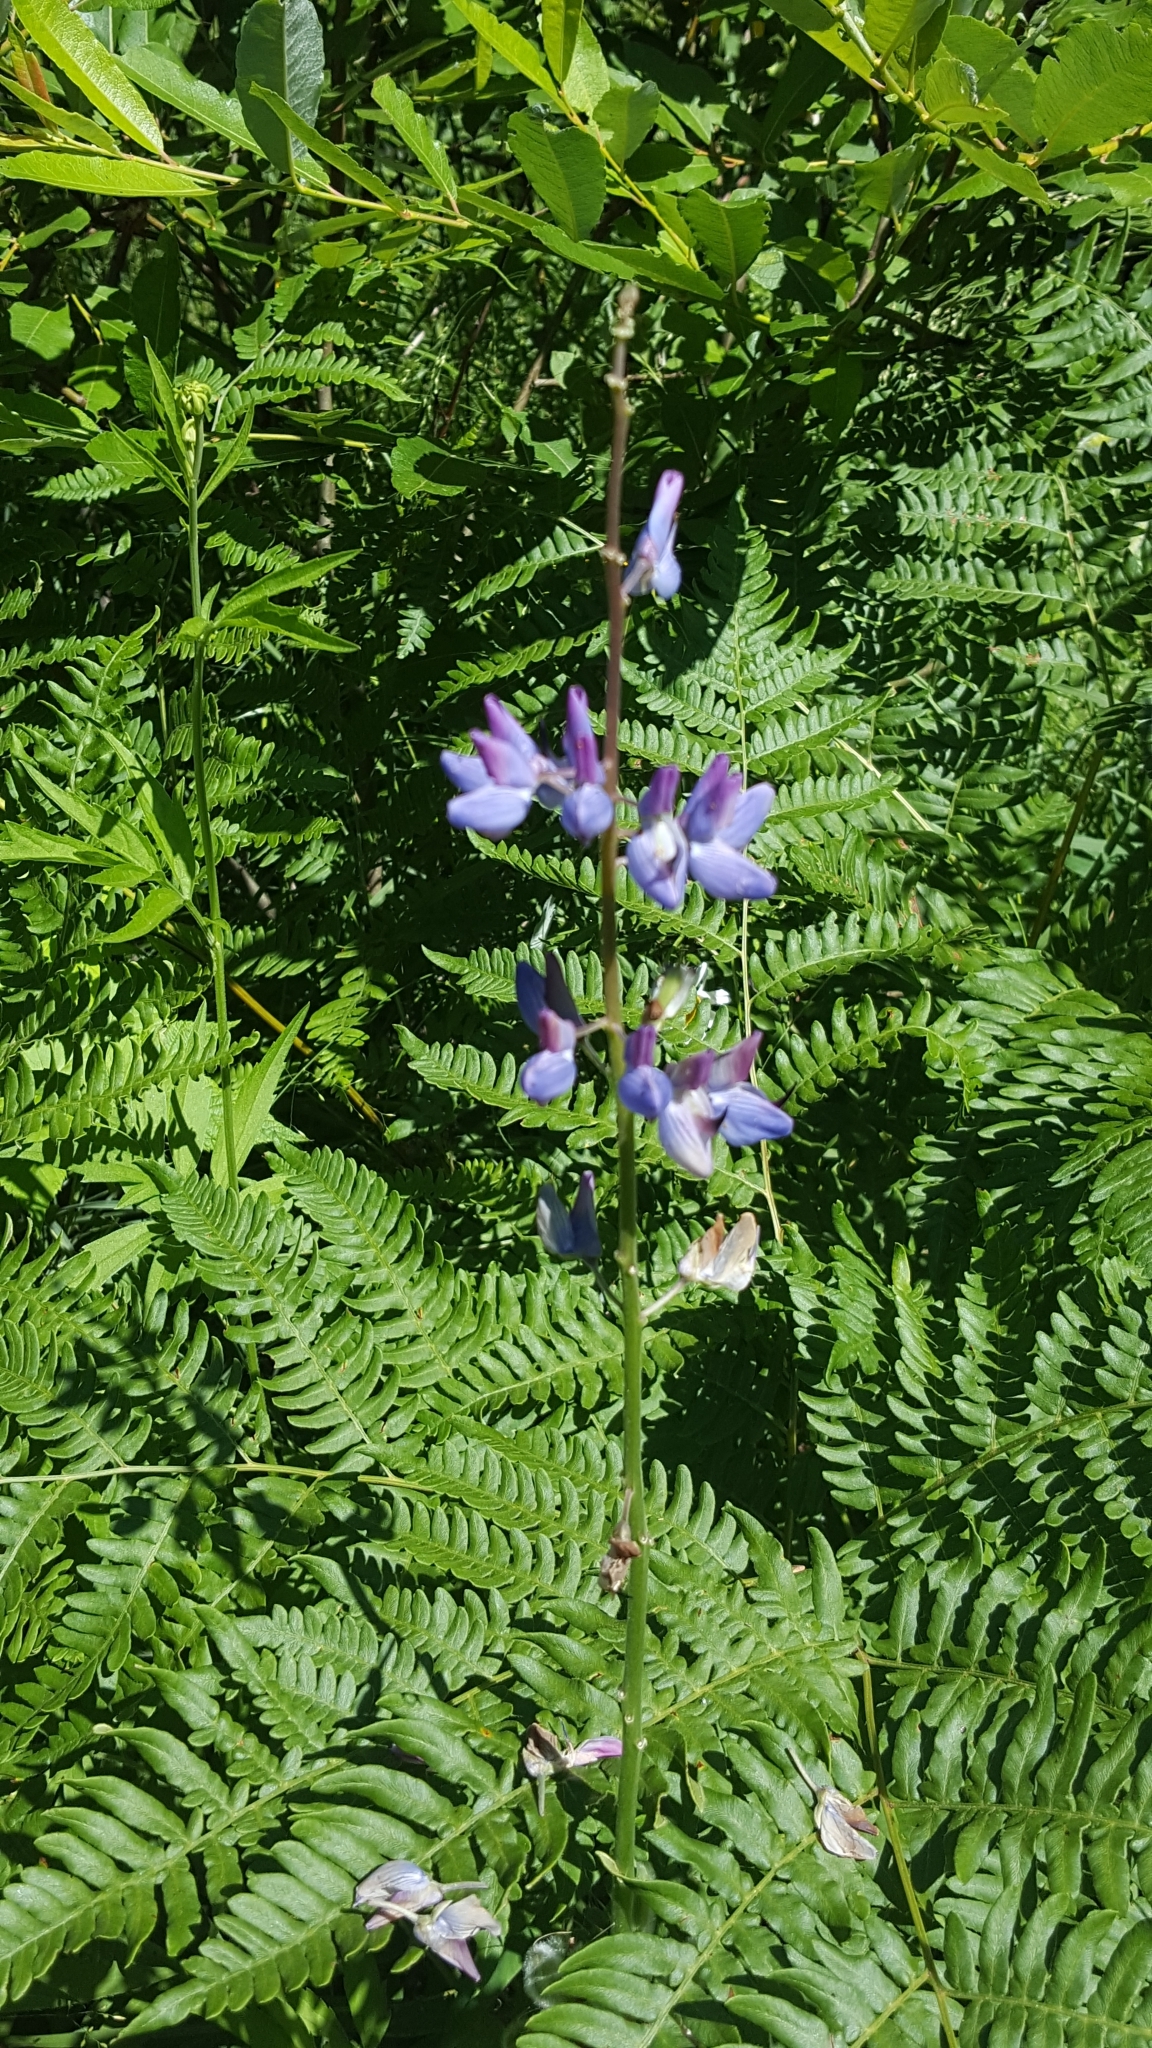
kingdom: Plantae
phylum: Tracheophyta
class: Magnoliopsida
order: Fabales
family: Fabaceae
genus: Lupinus
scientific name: Lupinus polyphyllus
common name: Garden lupin
